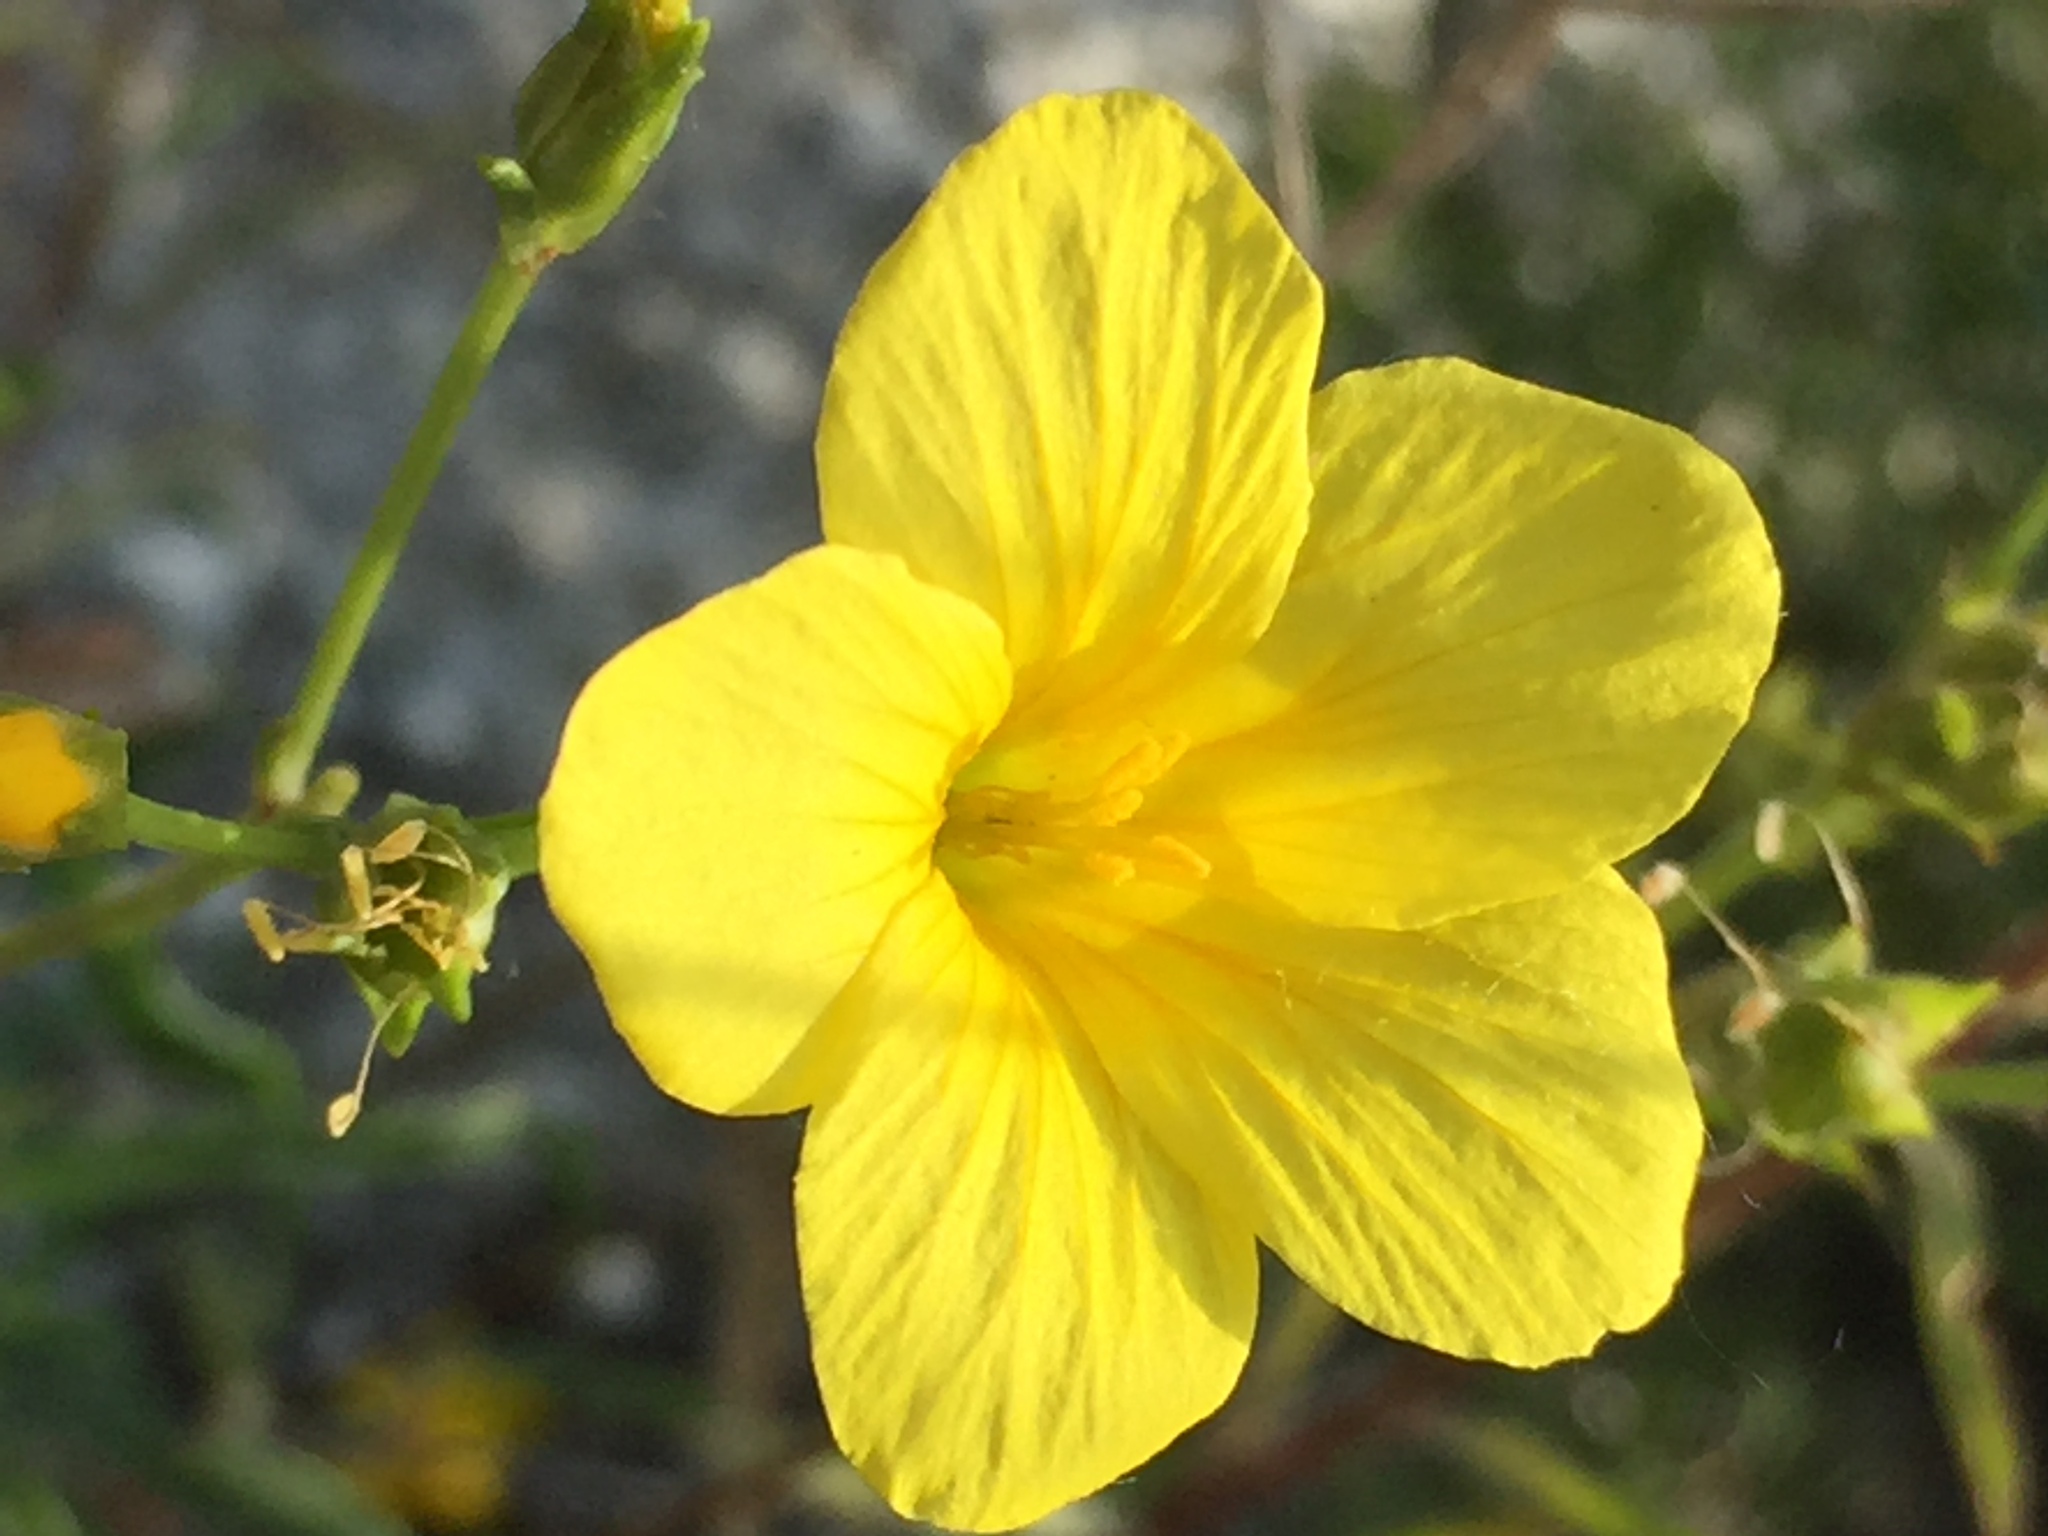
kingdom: Plantae
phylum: Tracheophyta
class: Magnoliopsida
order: Malpighiales
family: Linaceae
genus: Linum
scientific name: Linum ucranicum
